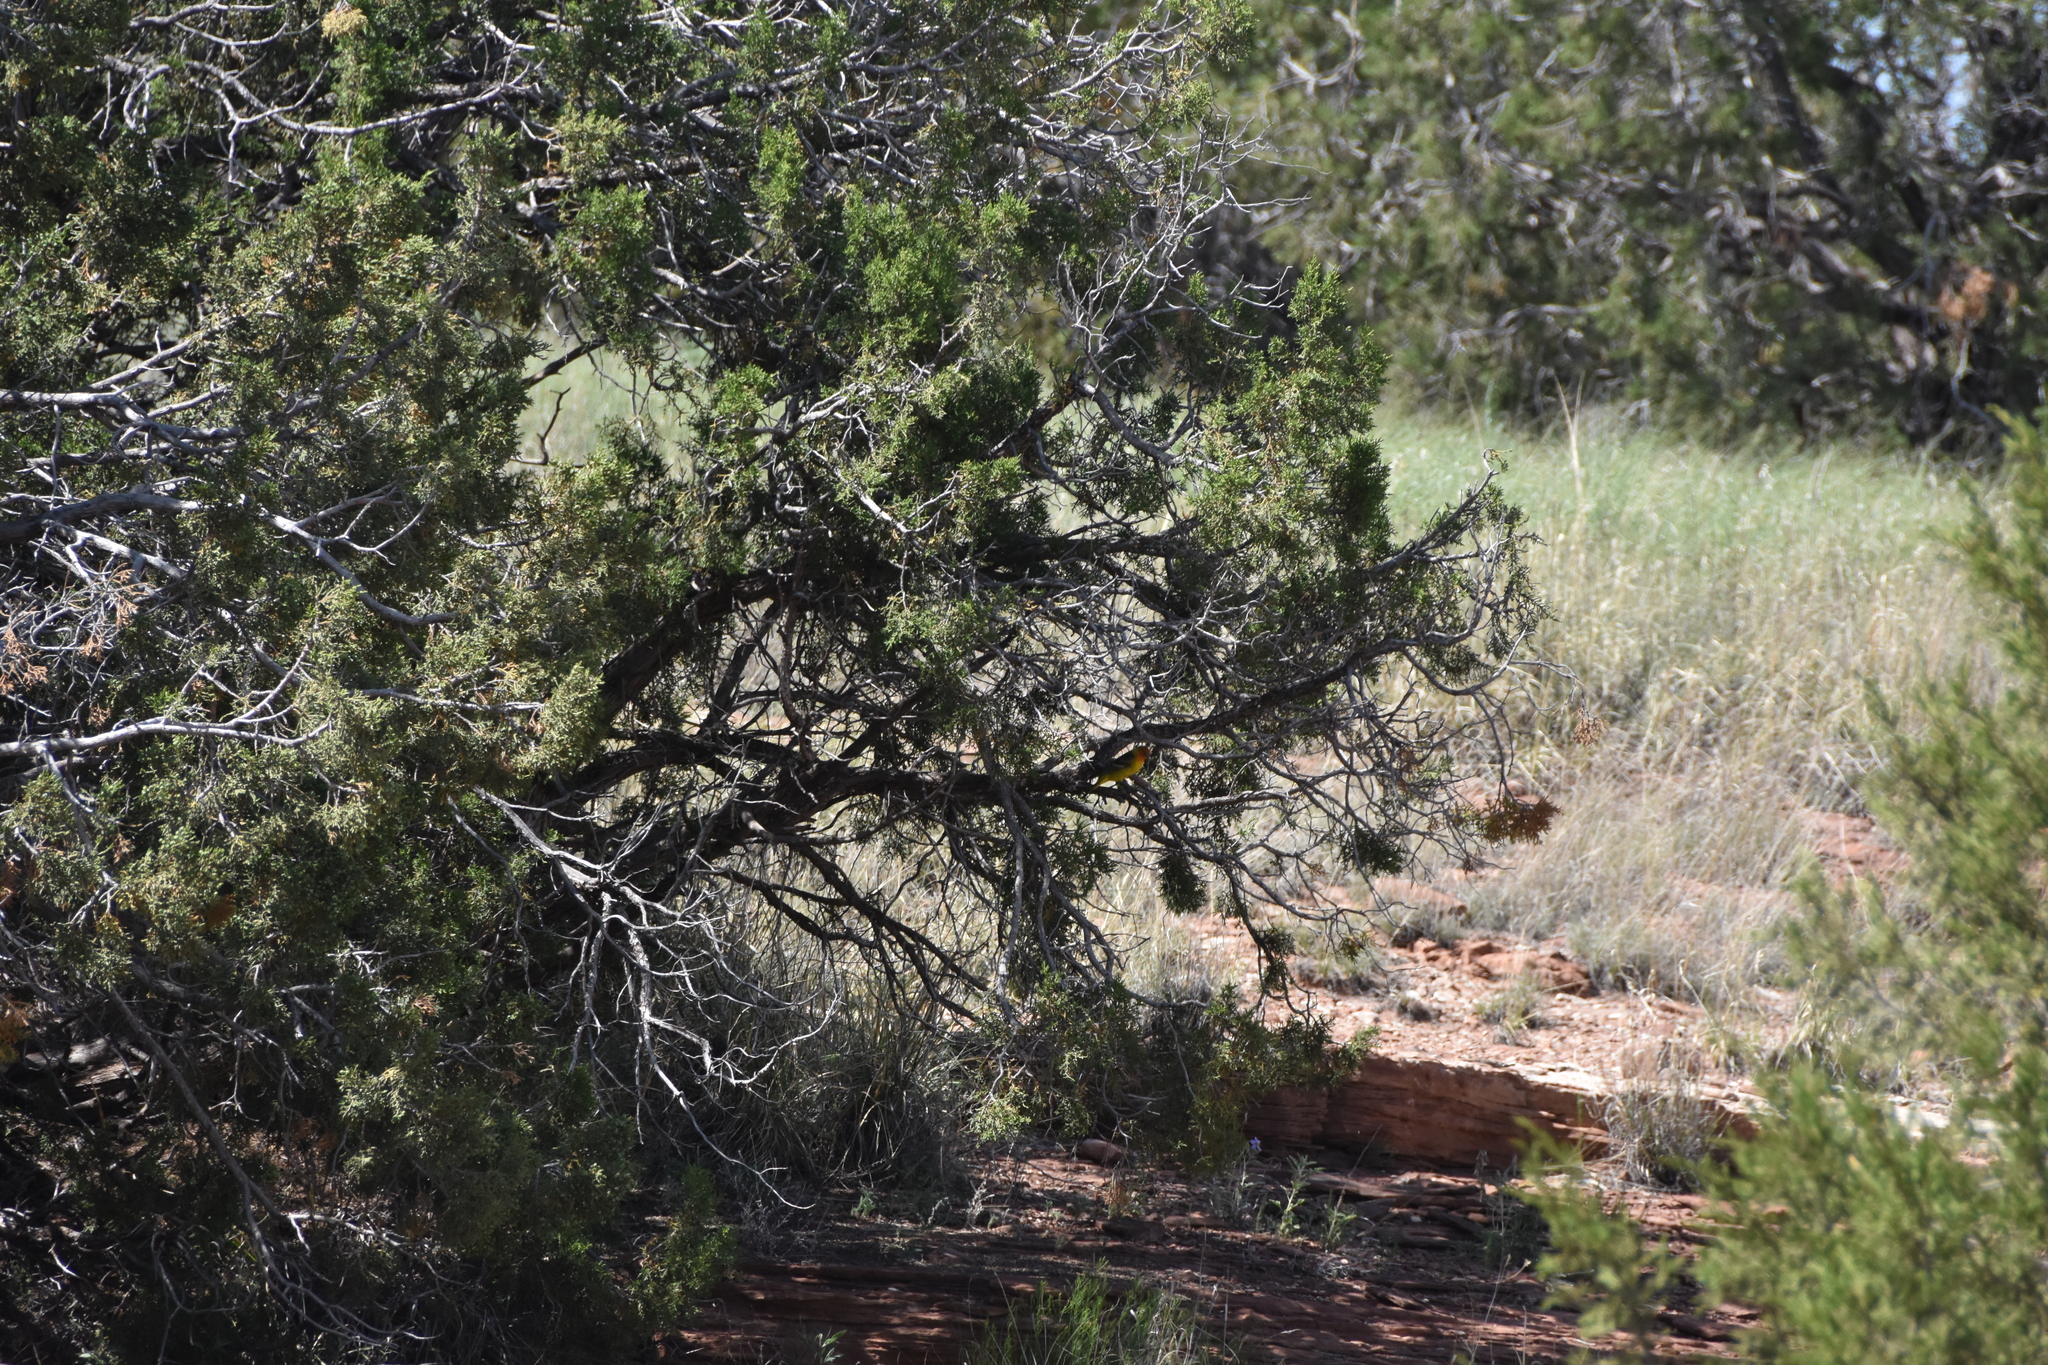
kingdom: Animalia
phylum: Chordata
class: Aves
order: Passeriformes
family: Cardinalidae
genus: Piranga
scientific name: Piranga ludoviciana
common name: Western tanager
